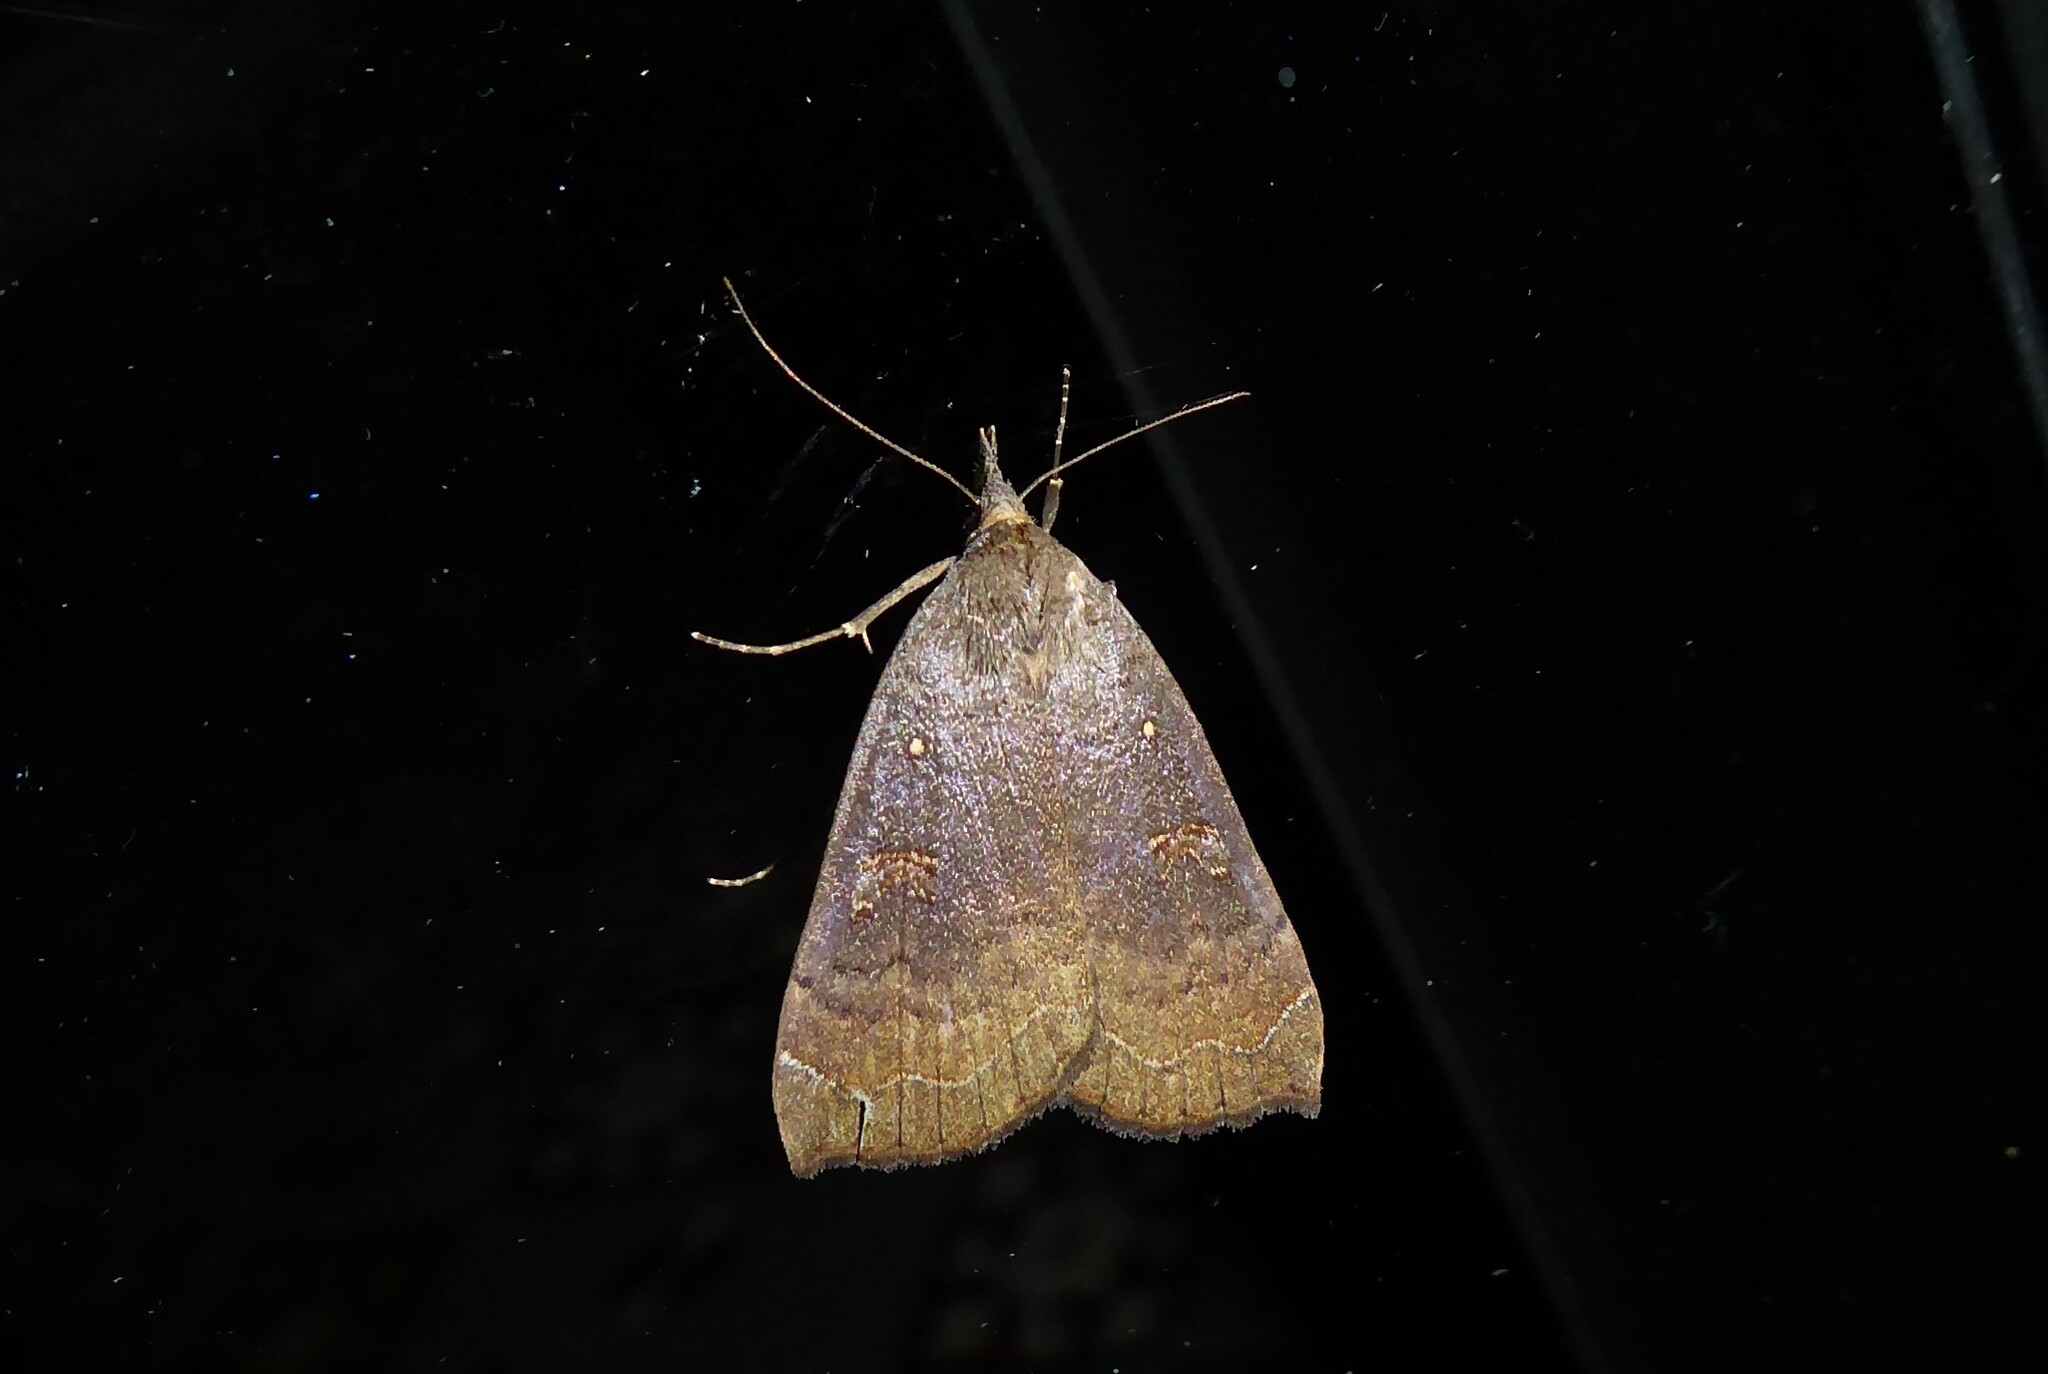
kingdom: Animalia
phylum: Arthropoda
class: Insecta
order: Lepidoptera
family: Erebidae
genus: Rhapsa
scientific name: Rhapsa scotosialis
